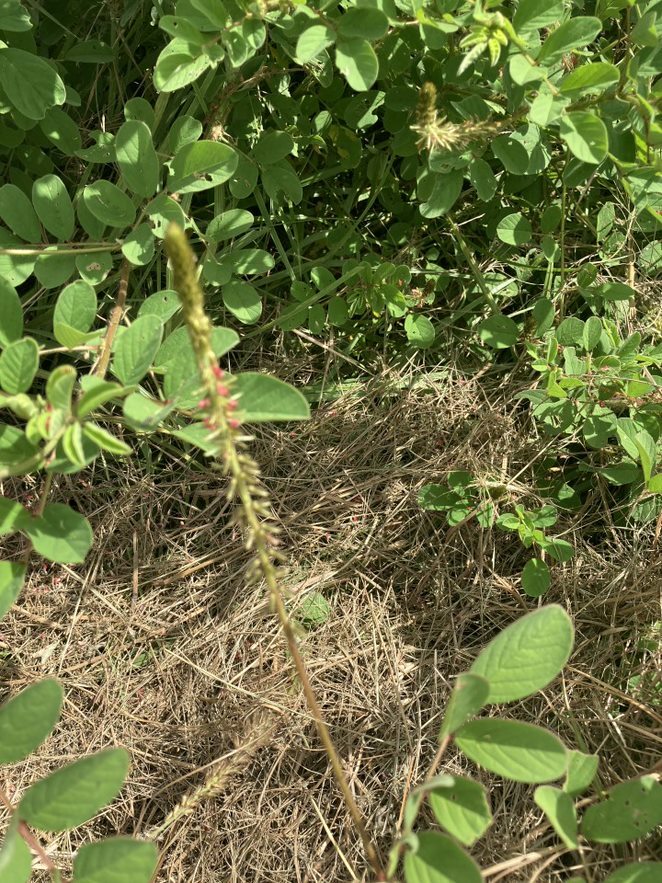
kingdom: Plantae
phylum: Tracheophyta
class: Magnoliopsida
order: Fabales
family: Fabaceae
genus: Indigofera
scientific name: Indigofera hirsuta
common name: Hairy indigo
